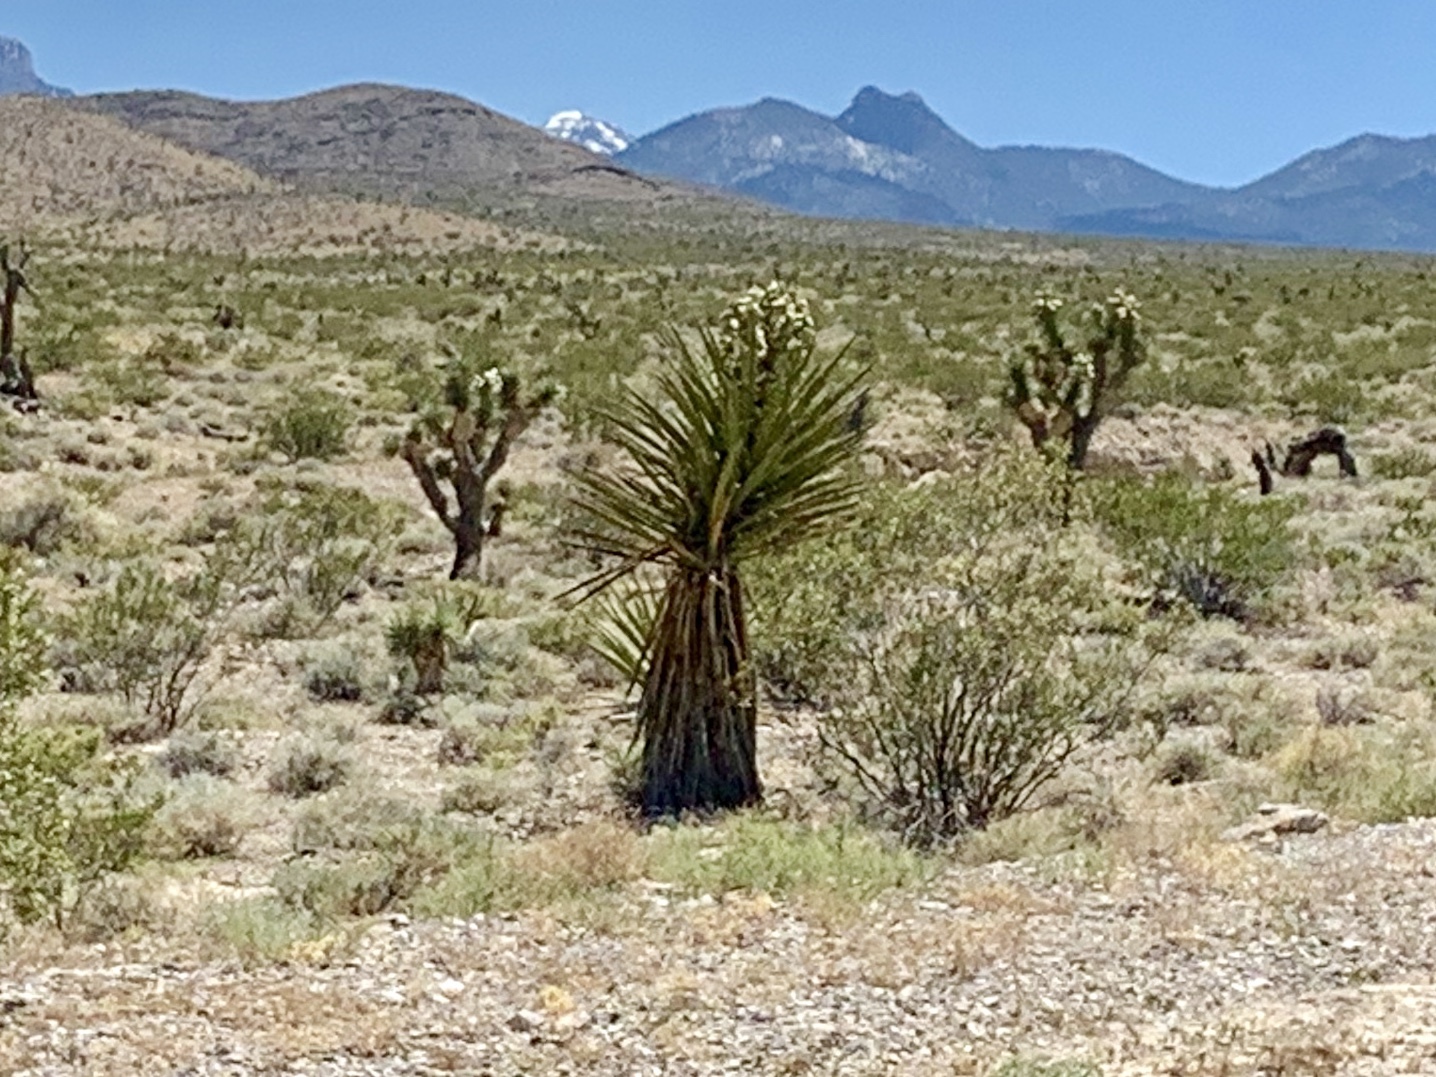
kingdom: Plantae
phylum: Tracheophyta
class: Liliopsida
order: Asparagales
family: Asparagaceae
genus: Yucca
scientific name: Yucca schidigera
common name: Mojave yucca
